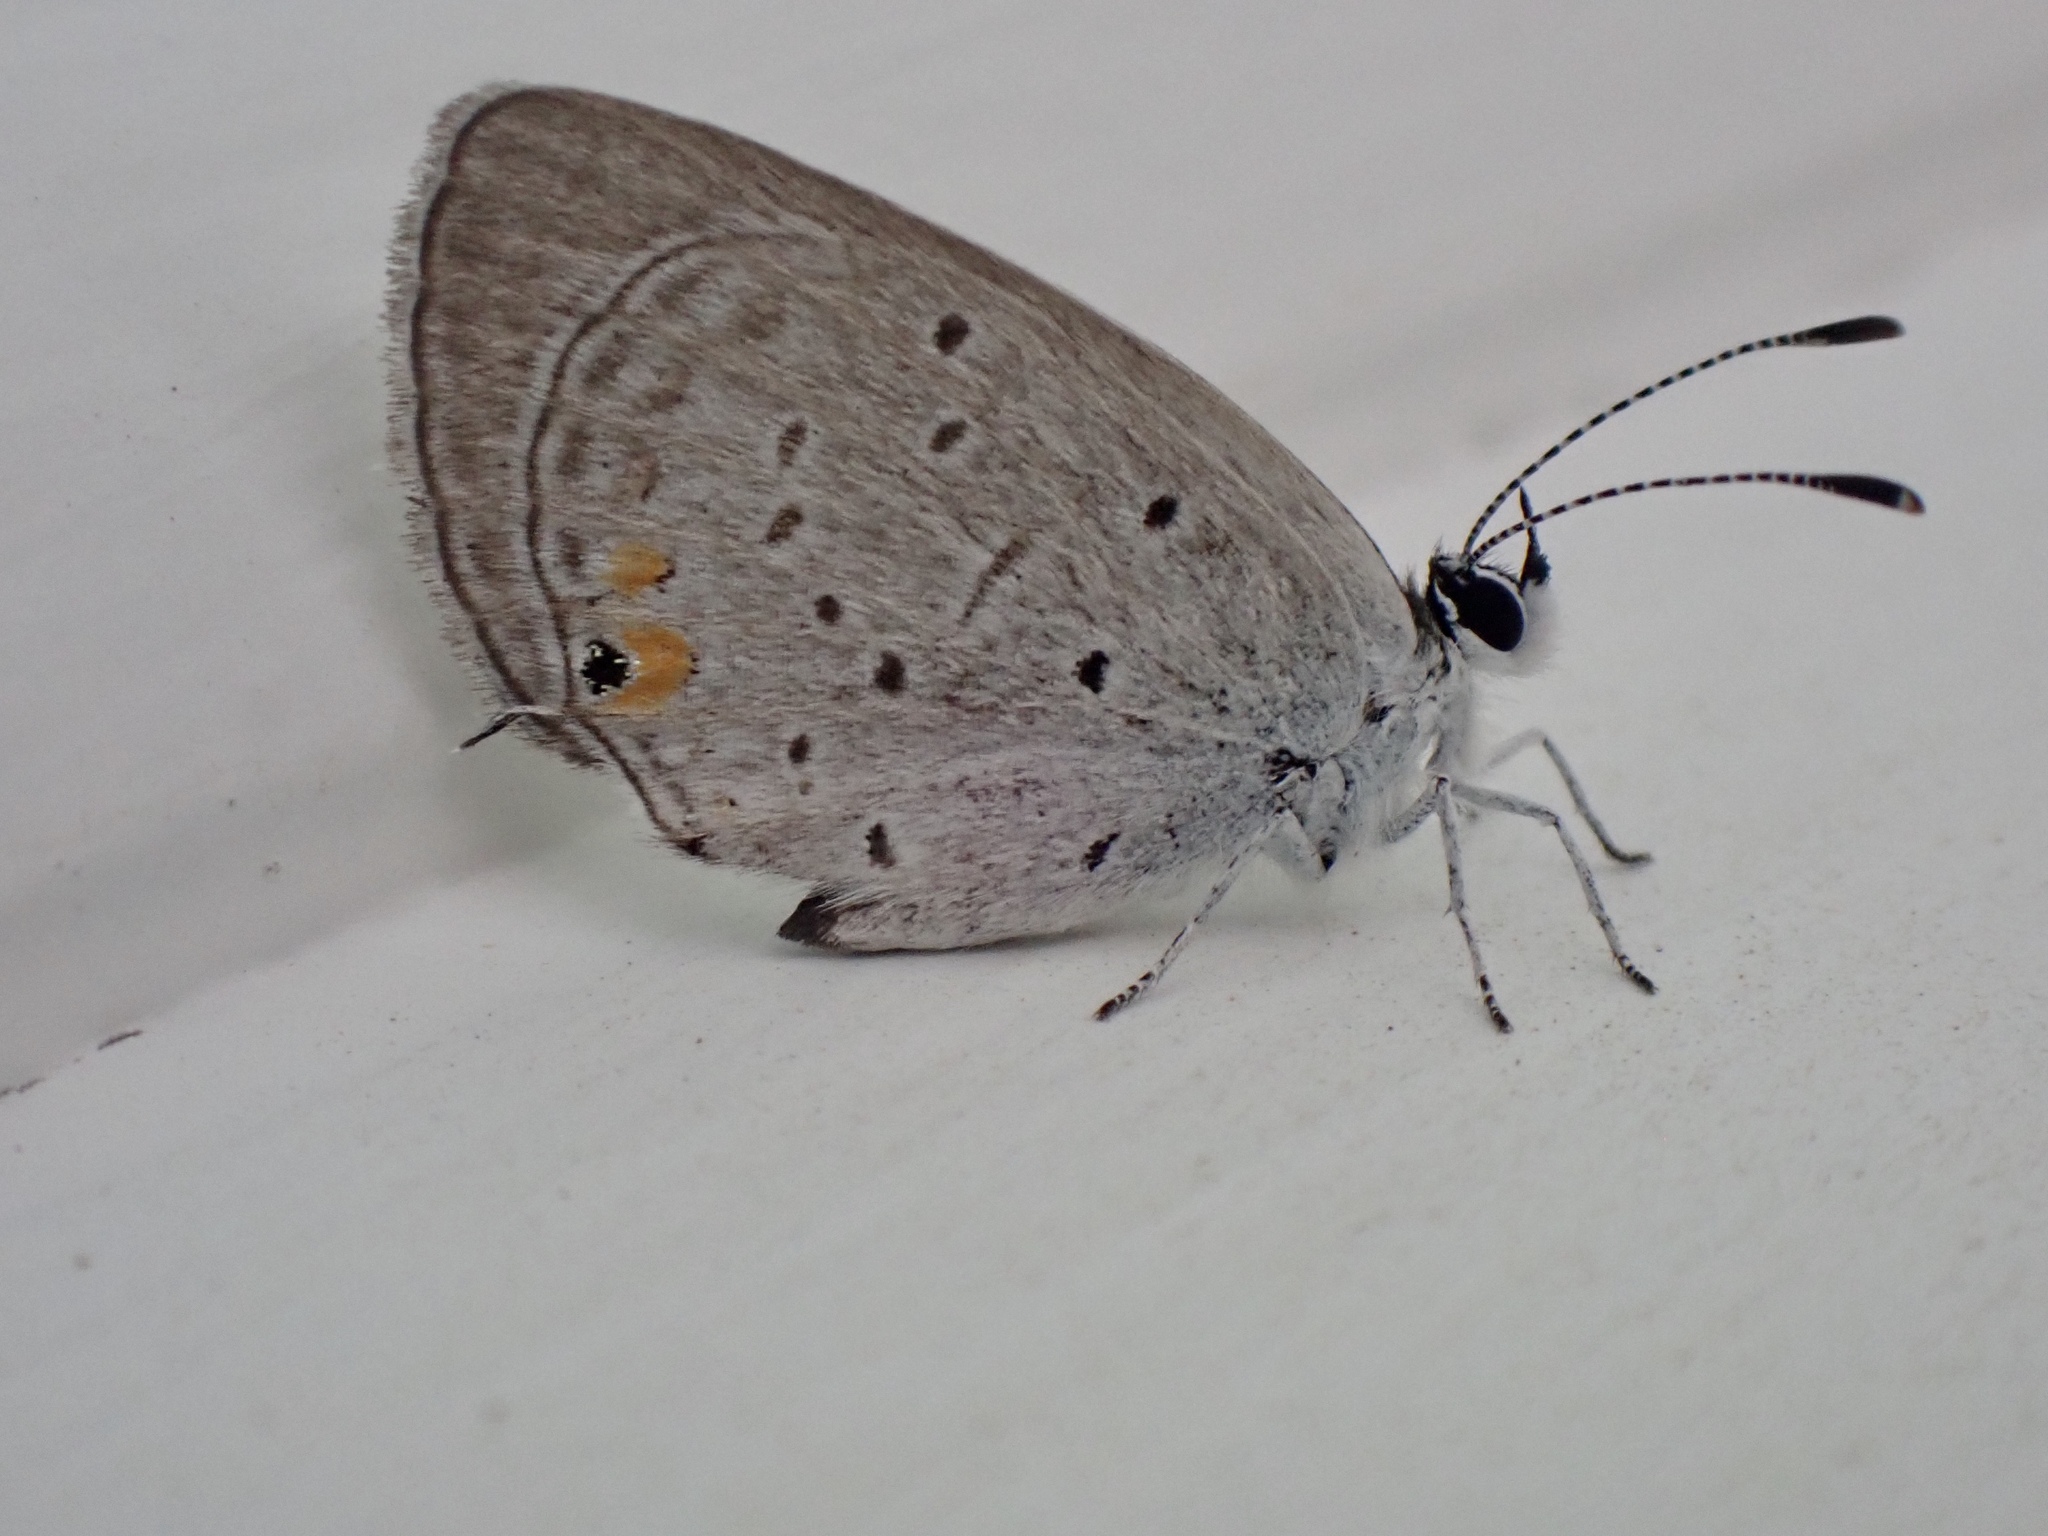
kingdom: Animalia
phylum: Arthropoda
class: Insecta
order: Lepidoptera
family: Lycaenidae
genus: Elkalyce
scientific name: Elkalyce comyntas
